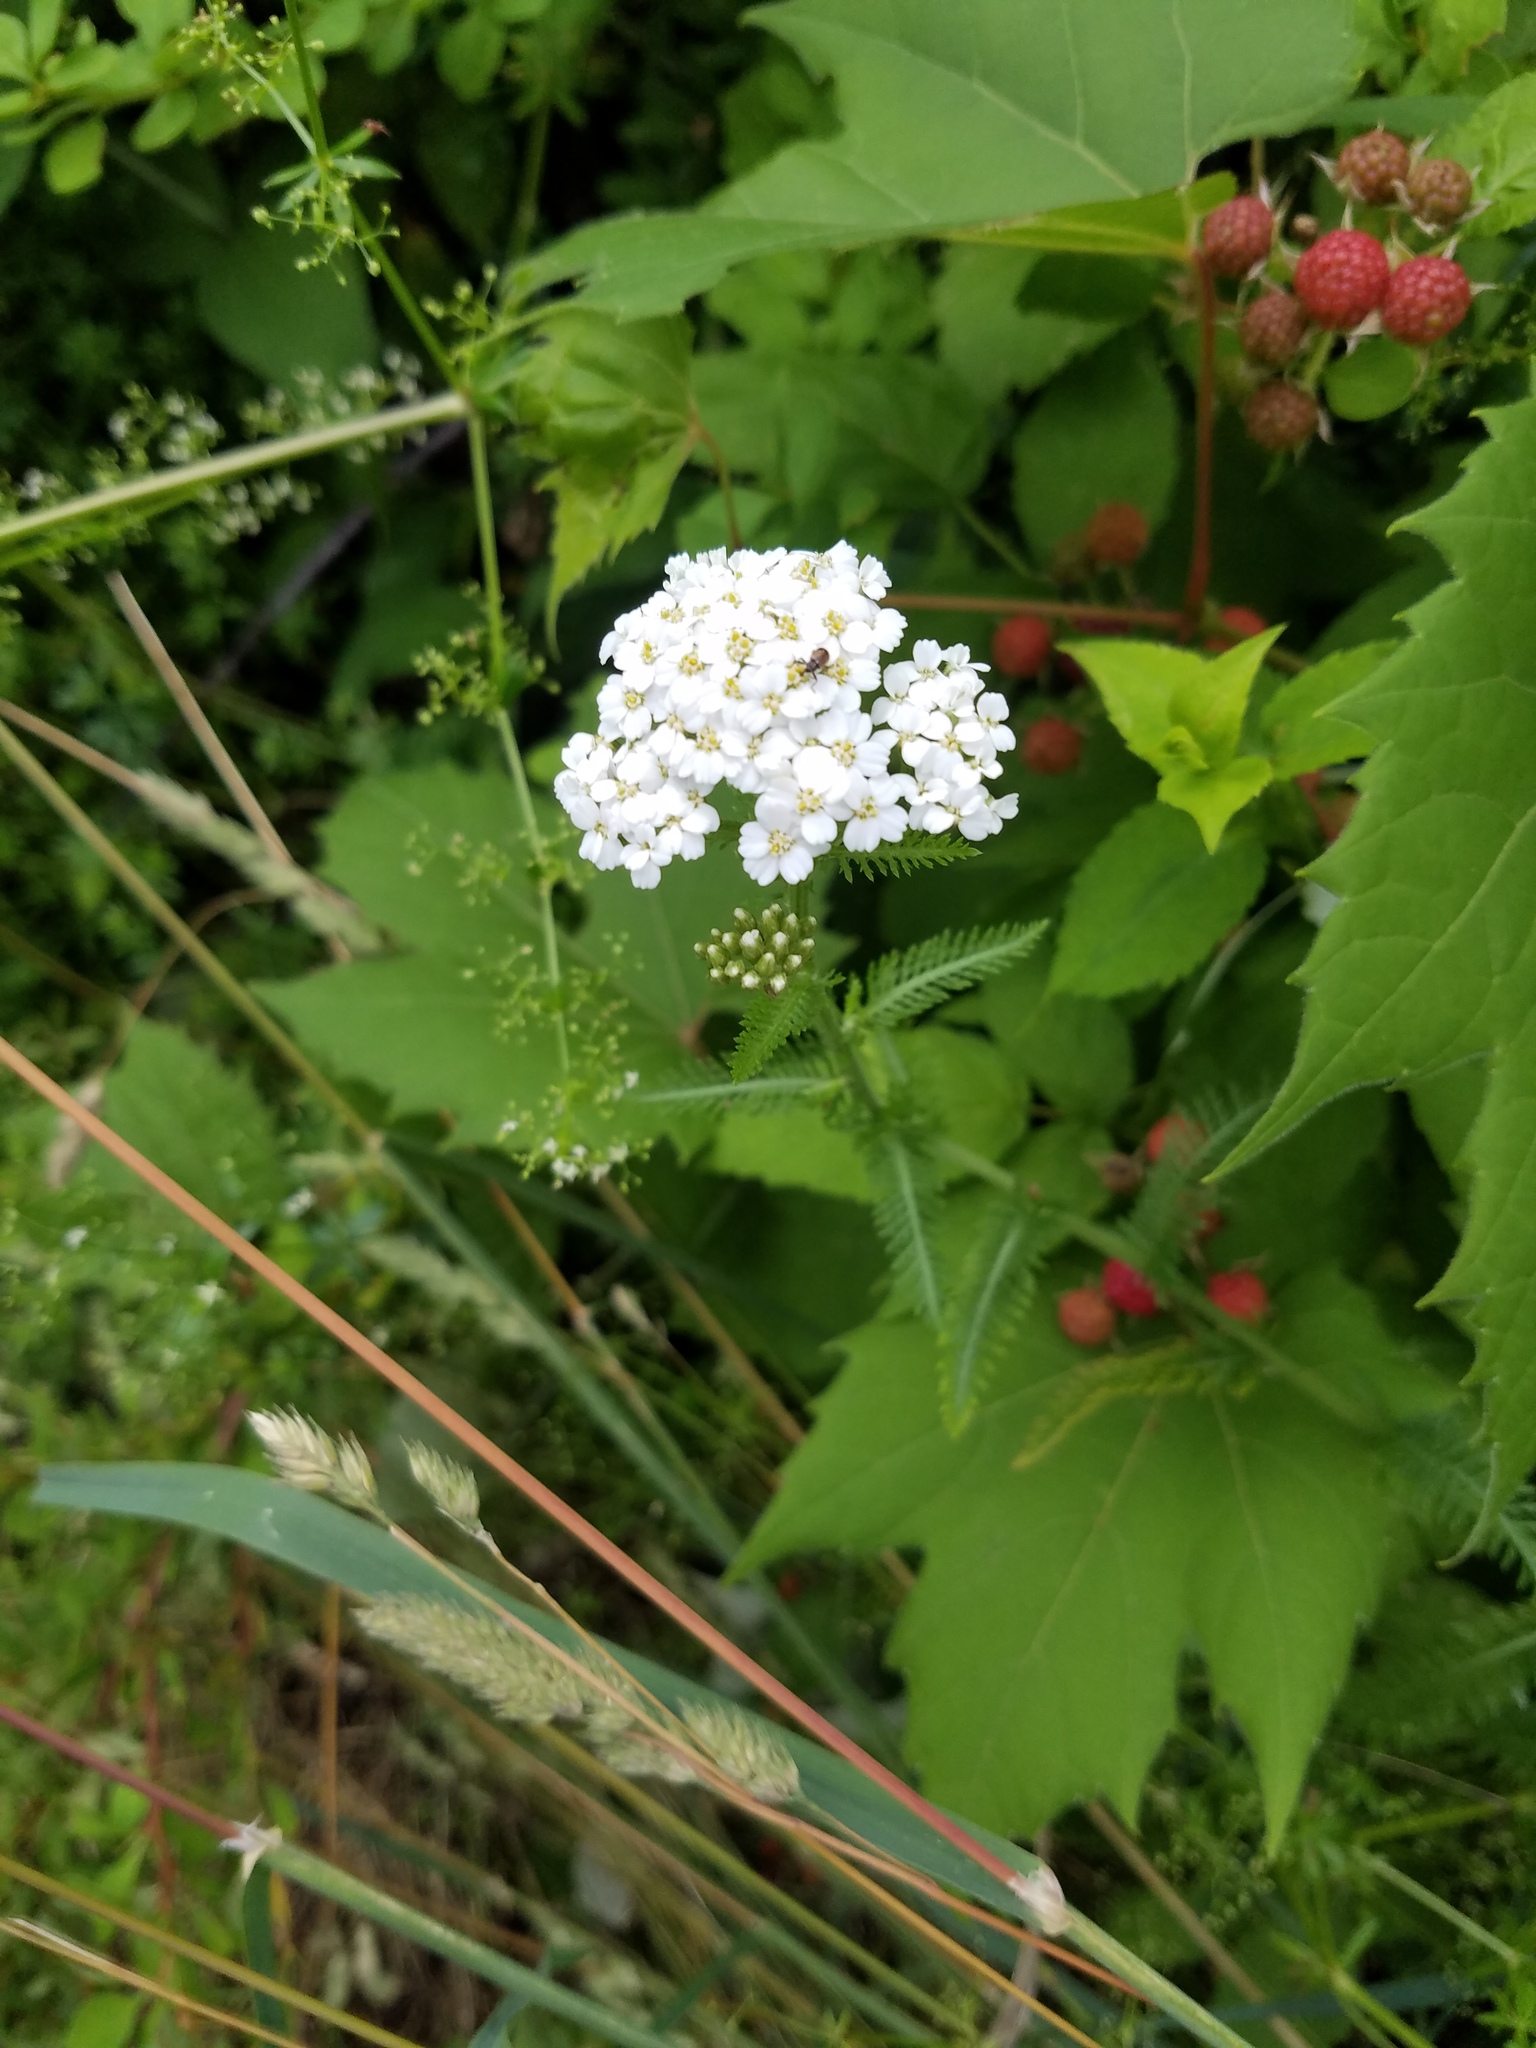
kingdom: Plantae
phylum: Tracheophyta
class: Magnoliopsida
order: Asterales
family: Asteraceae
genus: Achillea
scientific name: Achillea millefolium
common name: Yarrow
